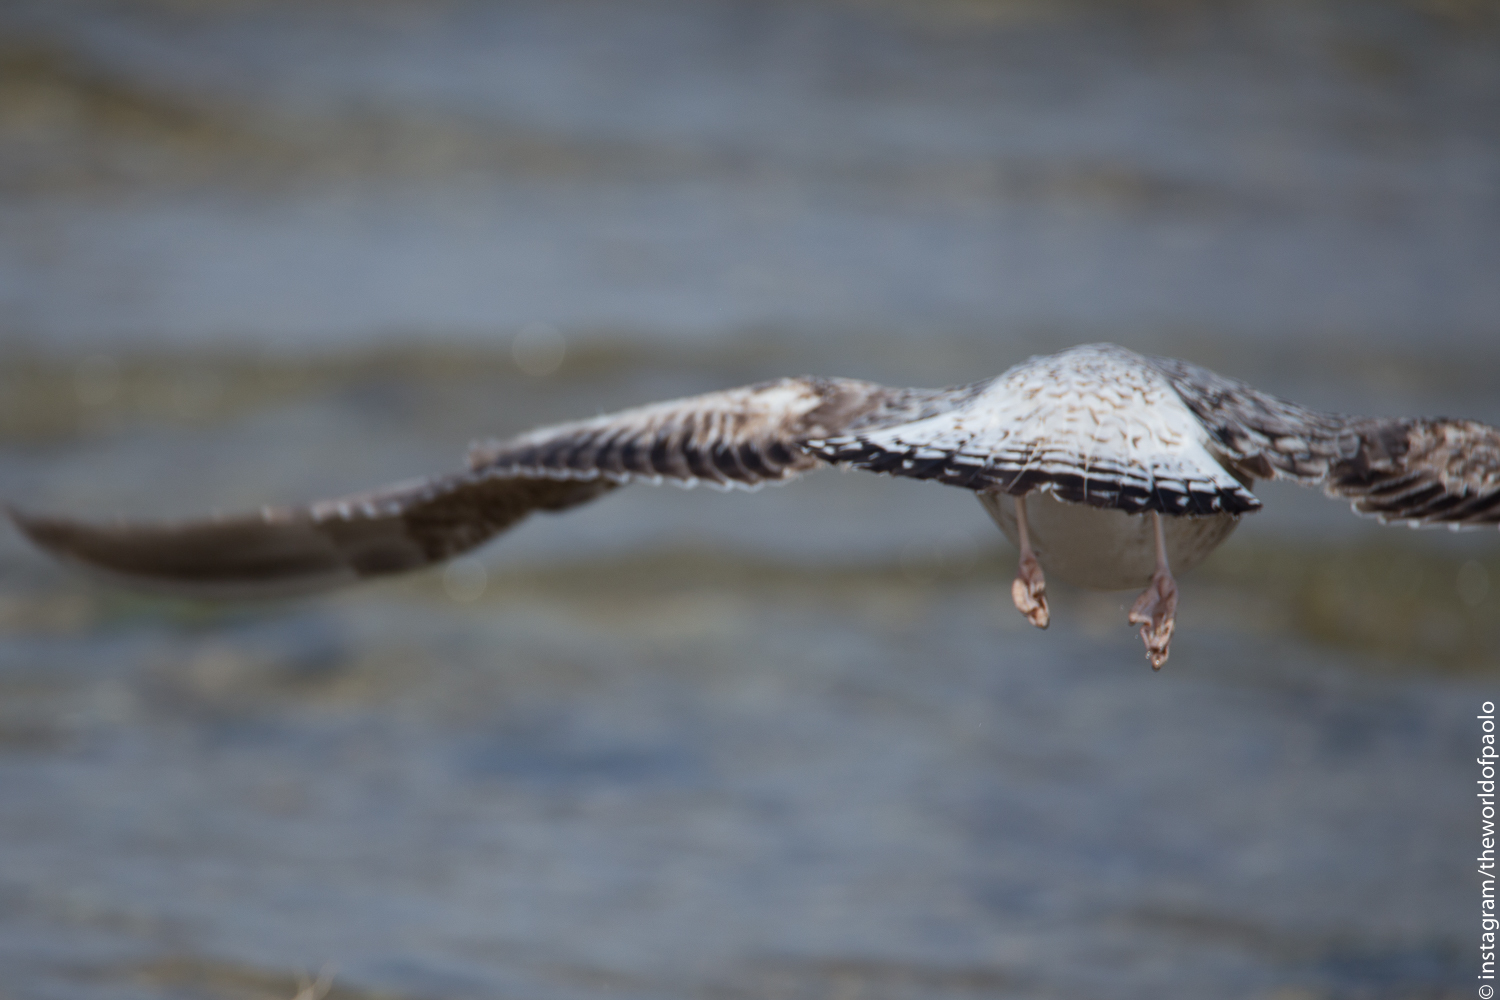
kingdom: Animalia
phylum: Chordata
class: Aves
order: Charadriiformes
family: Laridae
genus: Larus
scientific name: Larus cachinnans
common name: Caspian gull
